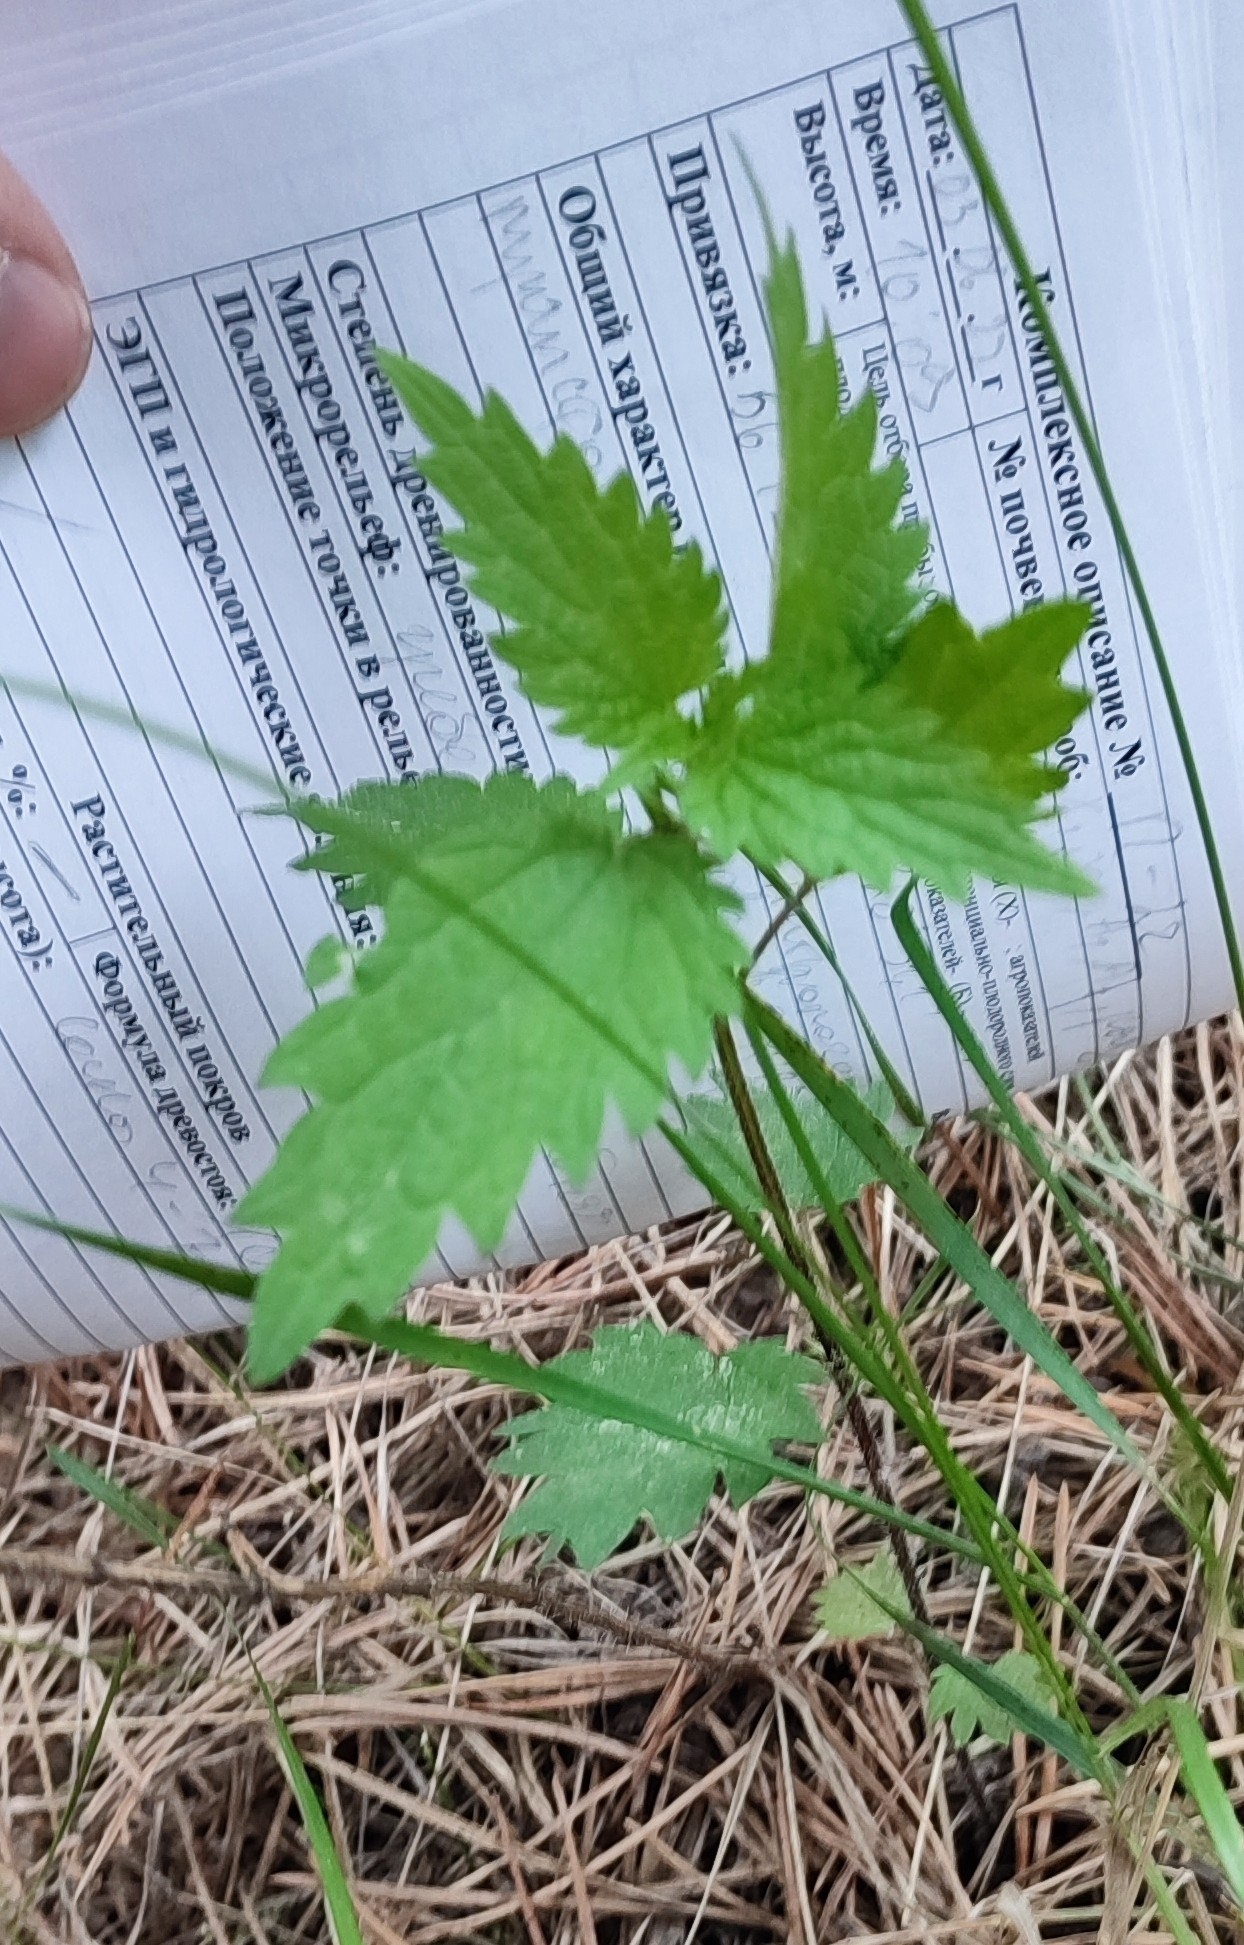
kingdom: Plantae
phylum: Tracheophyta
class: Magnoliopsida
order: Rosales
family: Urticaceae
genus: Urtica
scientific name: Urtica dioica
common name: Common nettle
